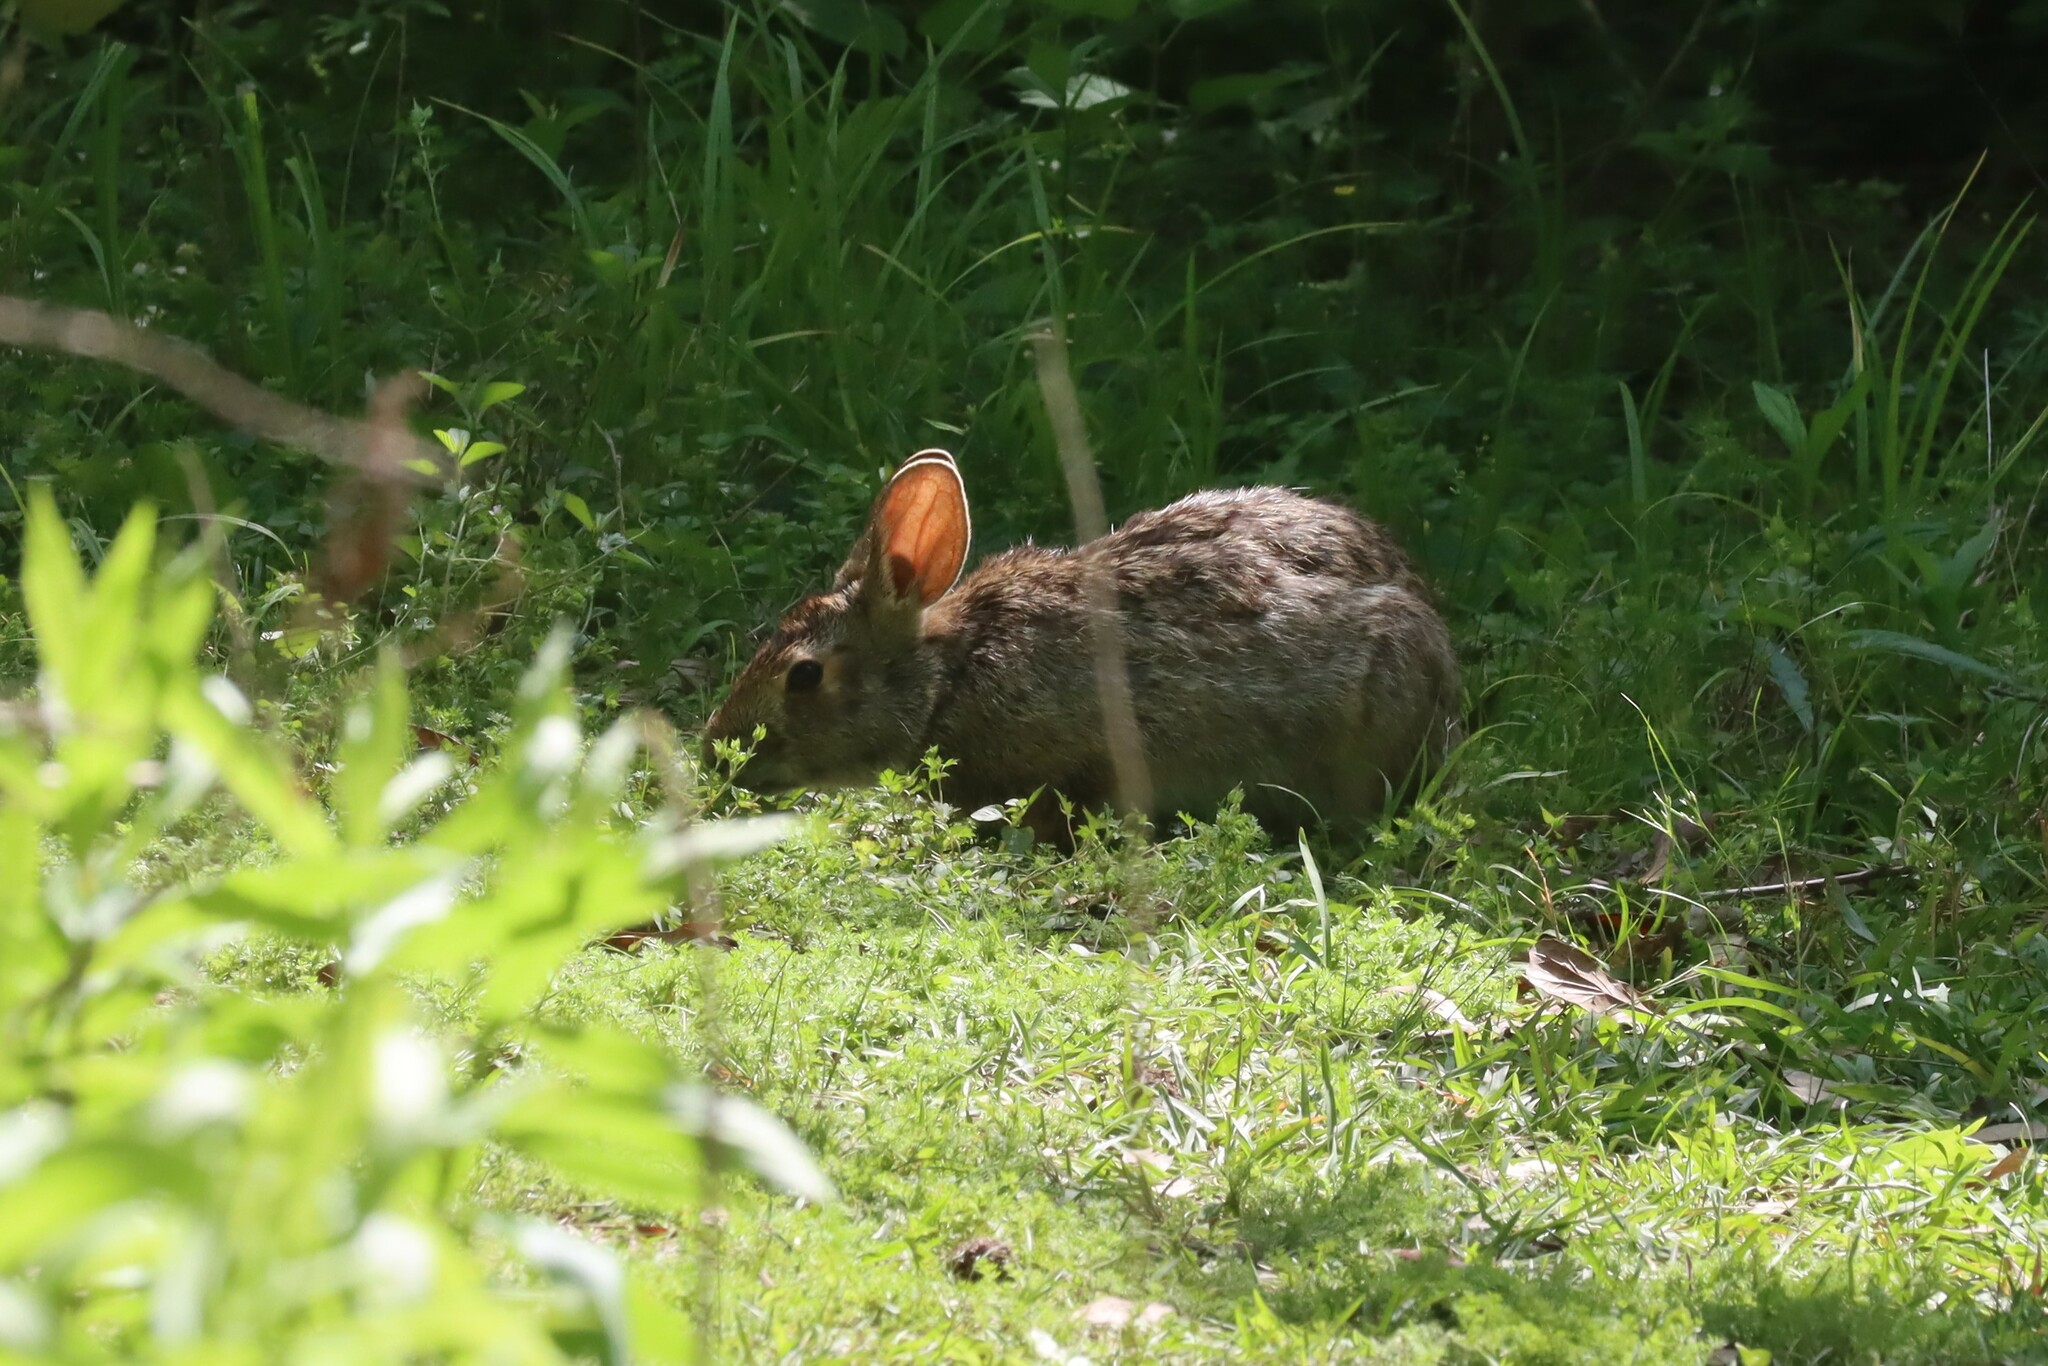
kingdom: Animalia
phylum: Chordata
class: Mammalia
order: Lagomorpha
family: Leporidae
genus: Sylvilagus
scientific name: Sylvilagus aquaticus
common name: Swamp rabbit
